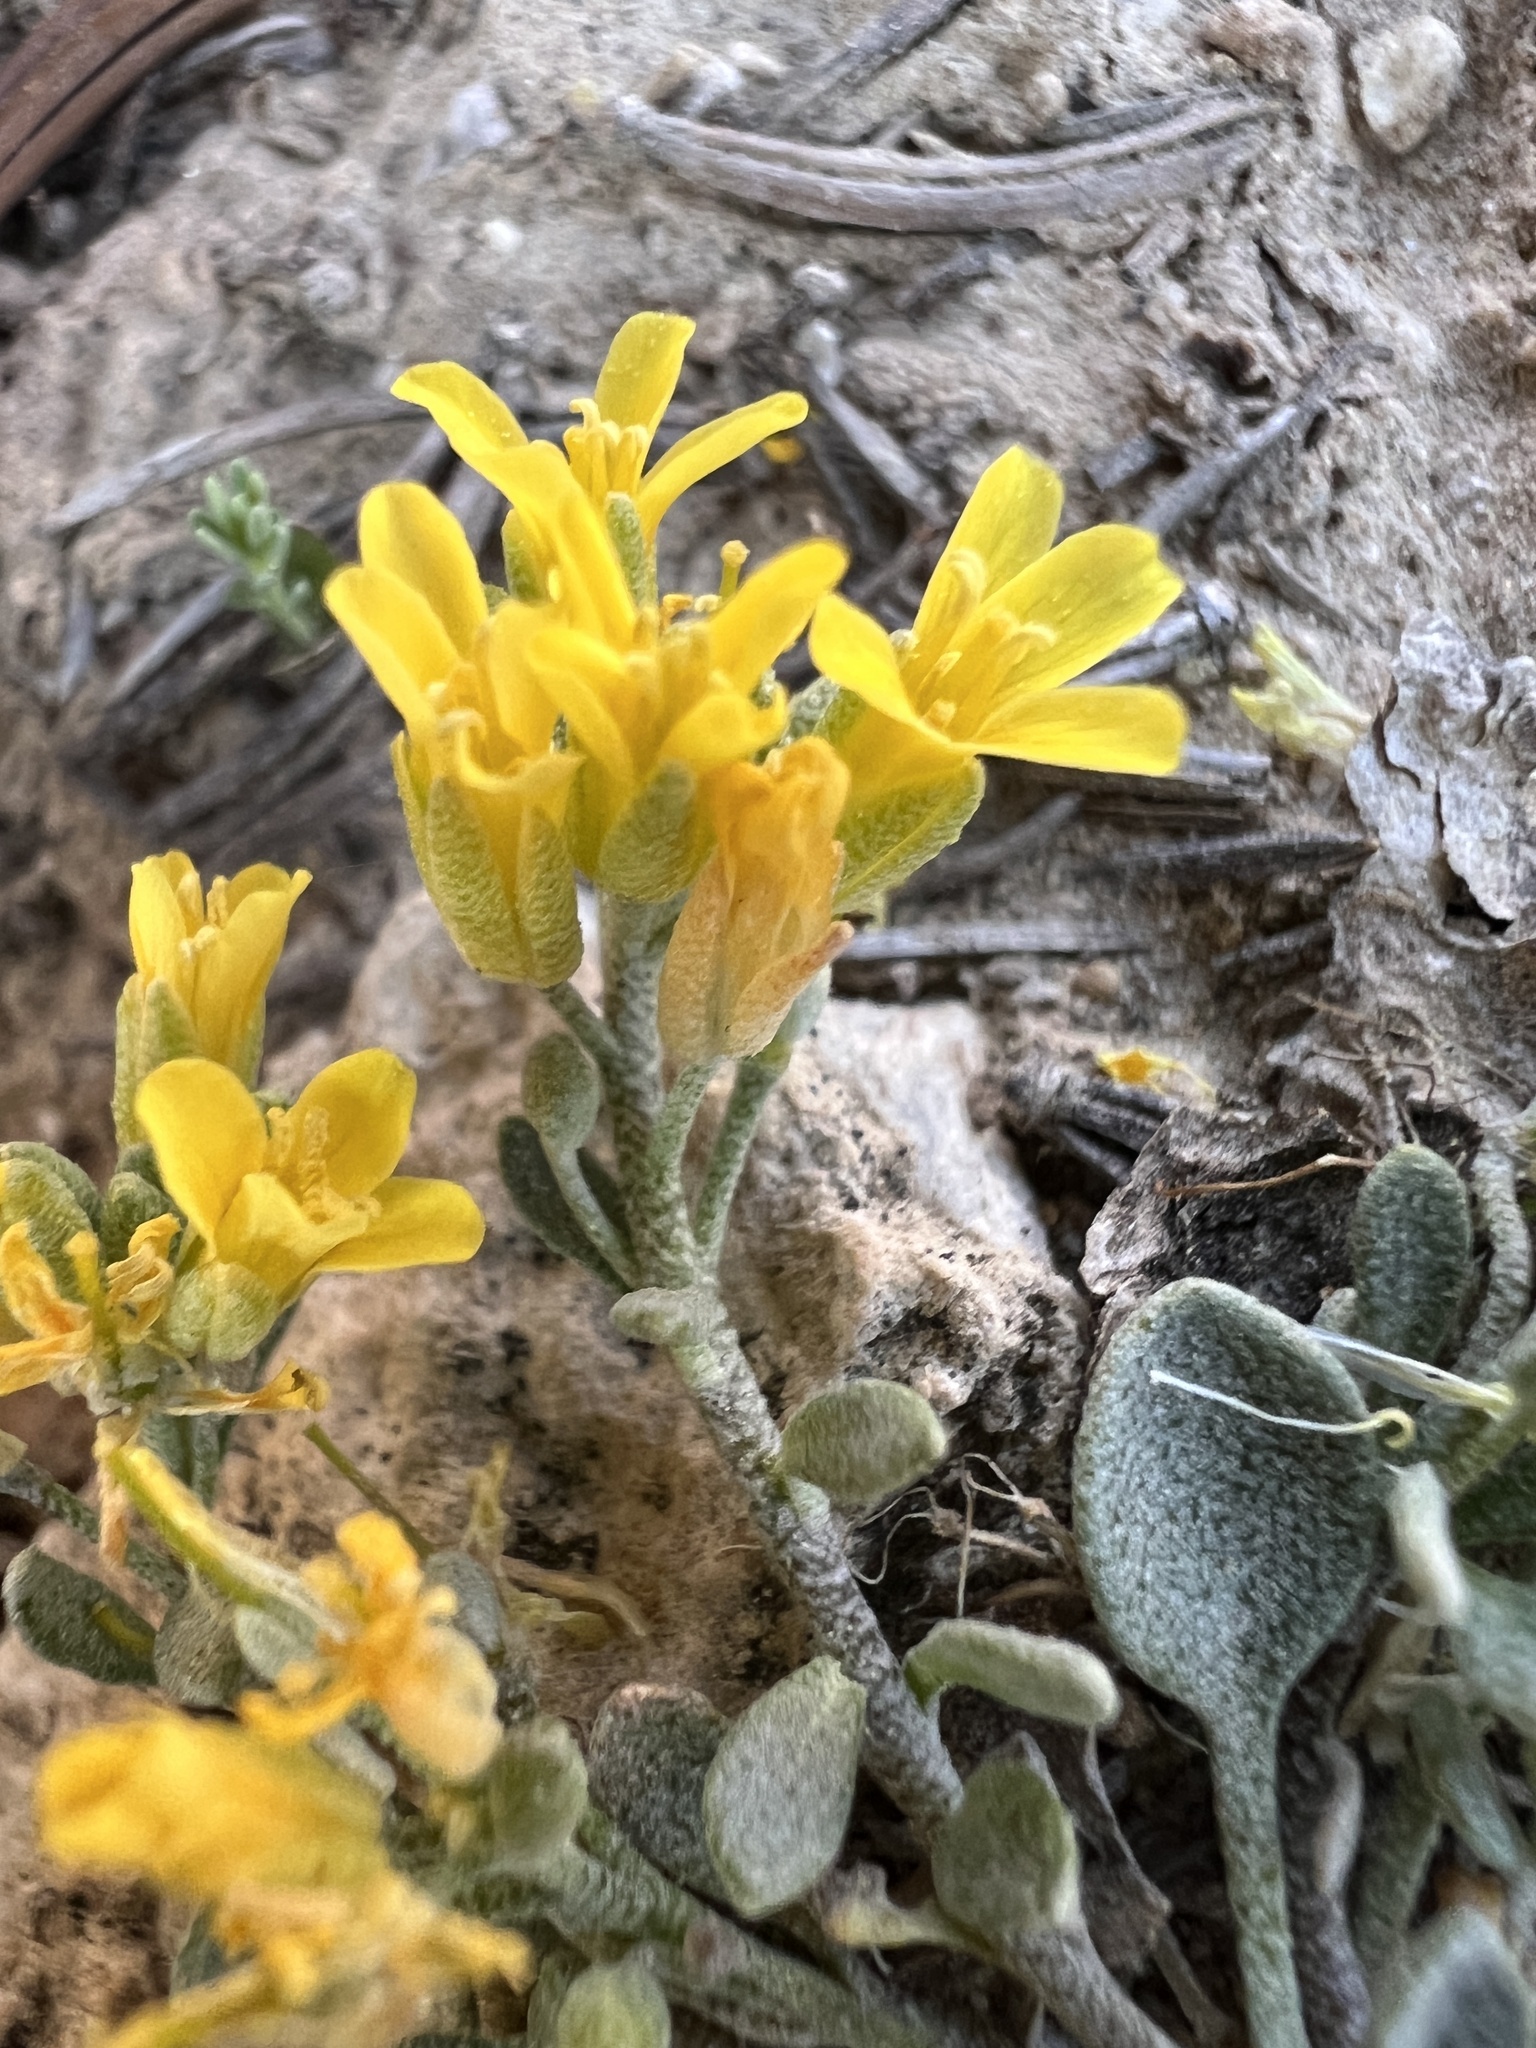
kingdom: Plantae
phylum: Tracheophyta
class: Magnoliopsida
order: Brassicales
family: Brassicaceae
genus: Physaria
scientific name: Physaria kingii
